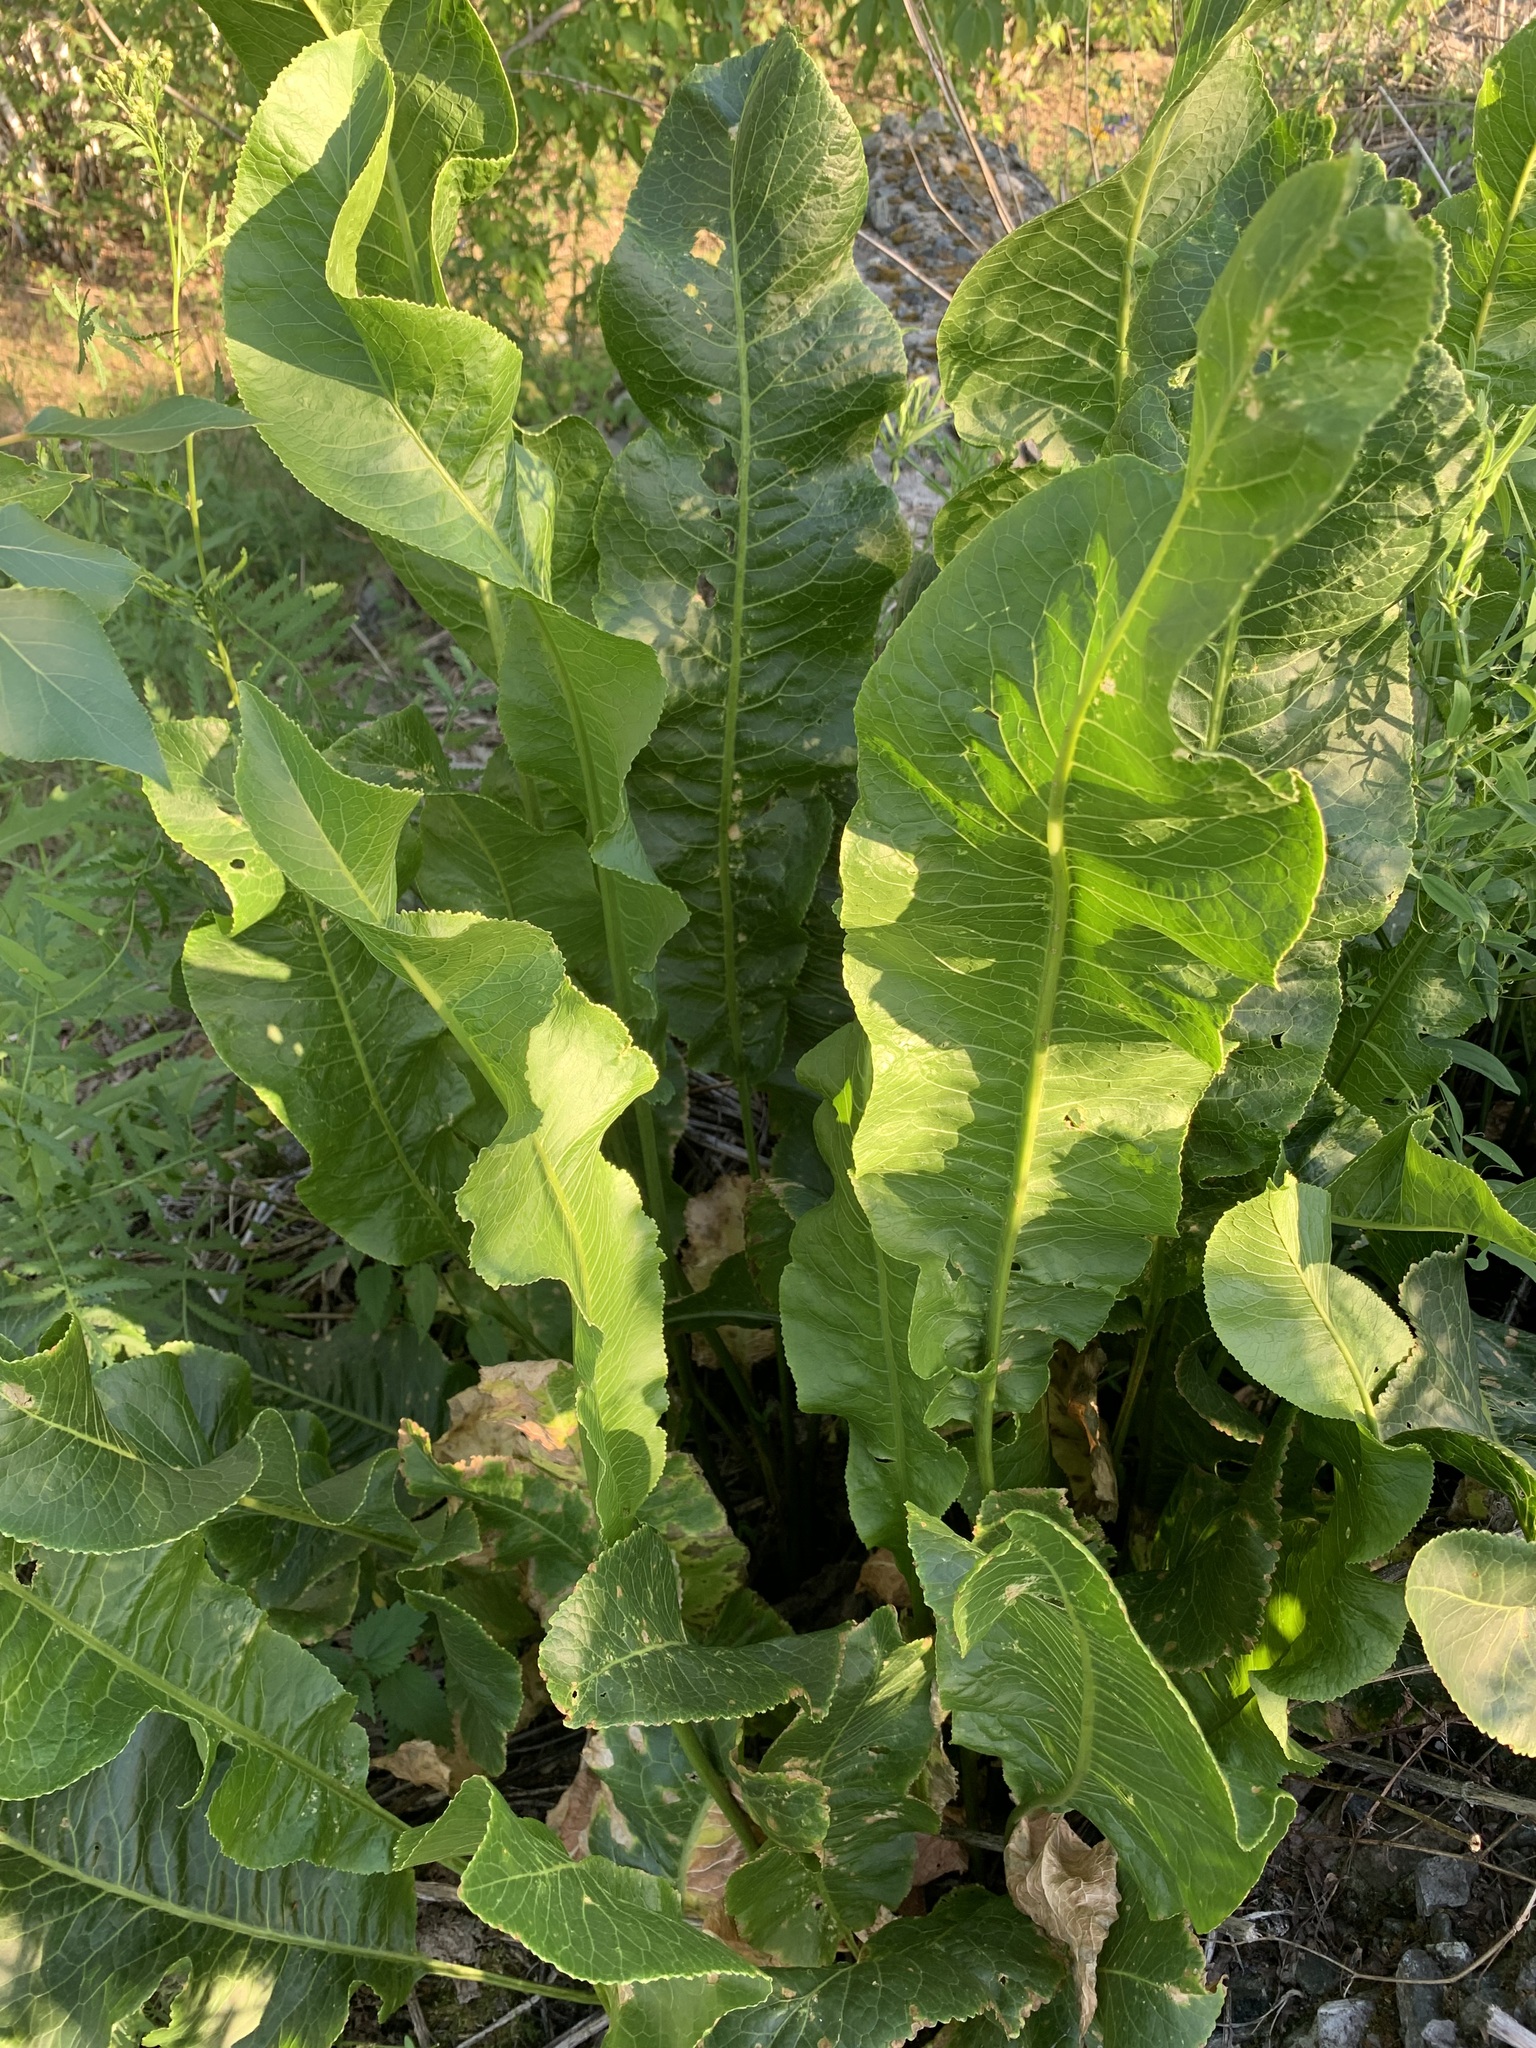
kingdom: Plantae
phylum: Tracheophyta
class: Magnoliopsida
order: Brassicales
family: Brassicaceae
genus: Armoracia
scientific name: Armoracia rusticana
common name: Horseradish
